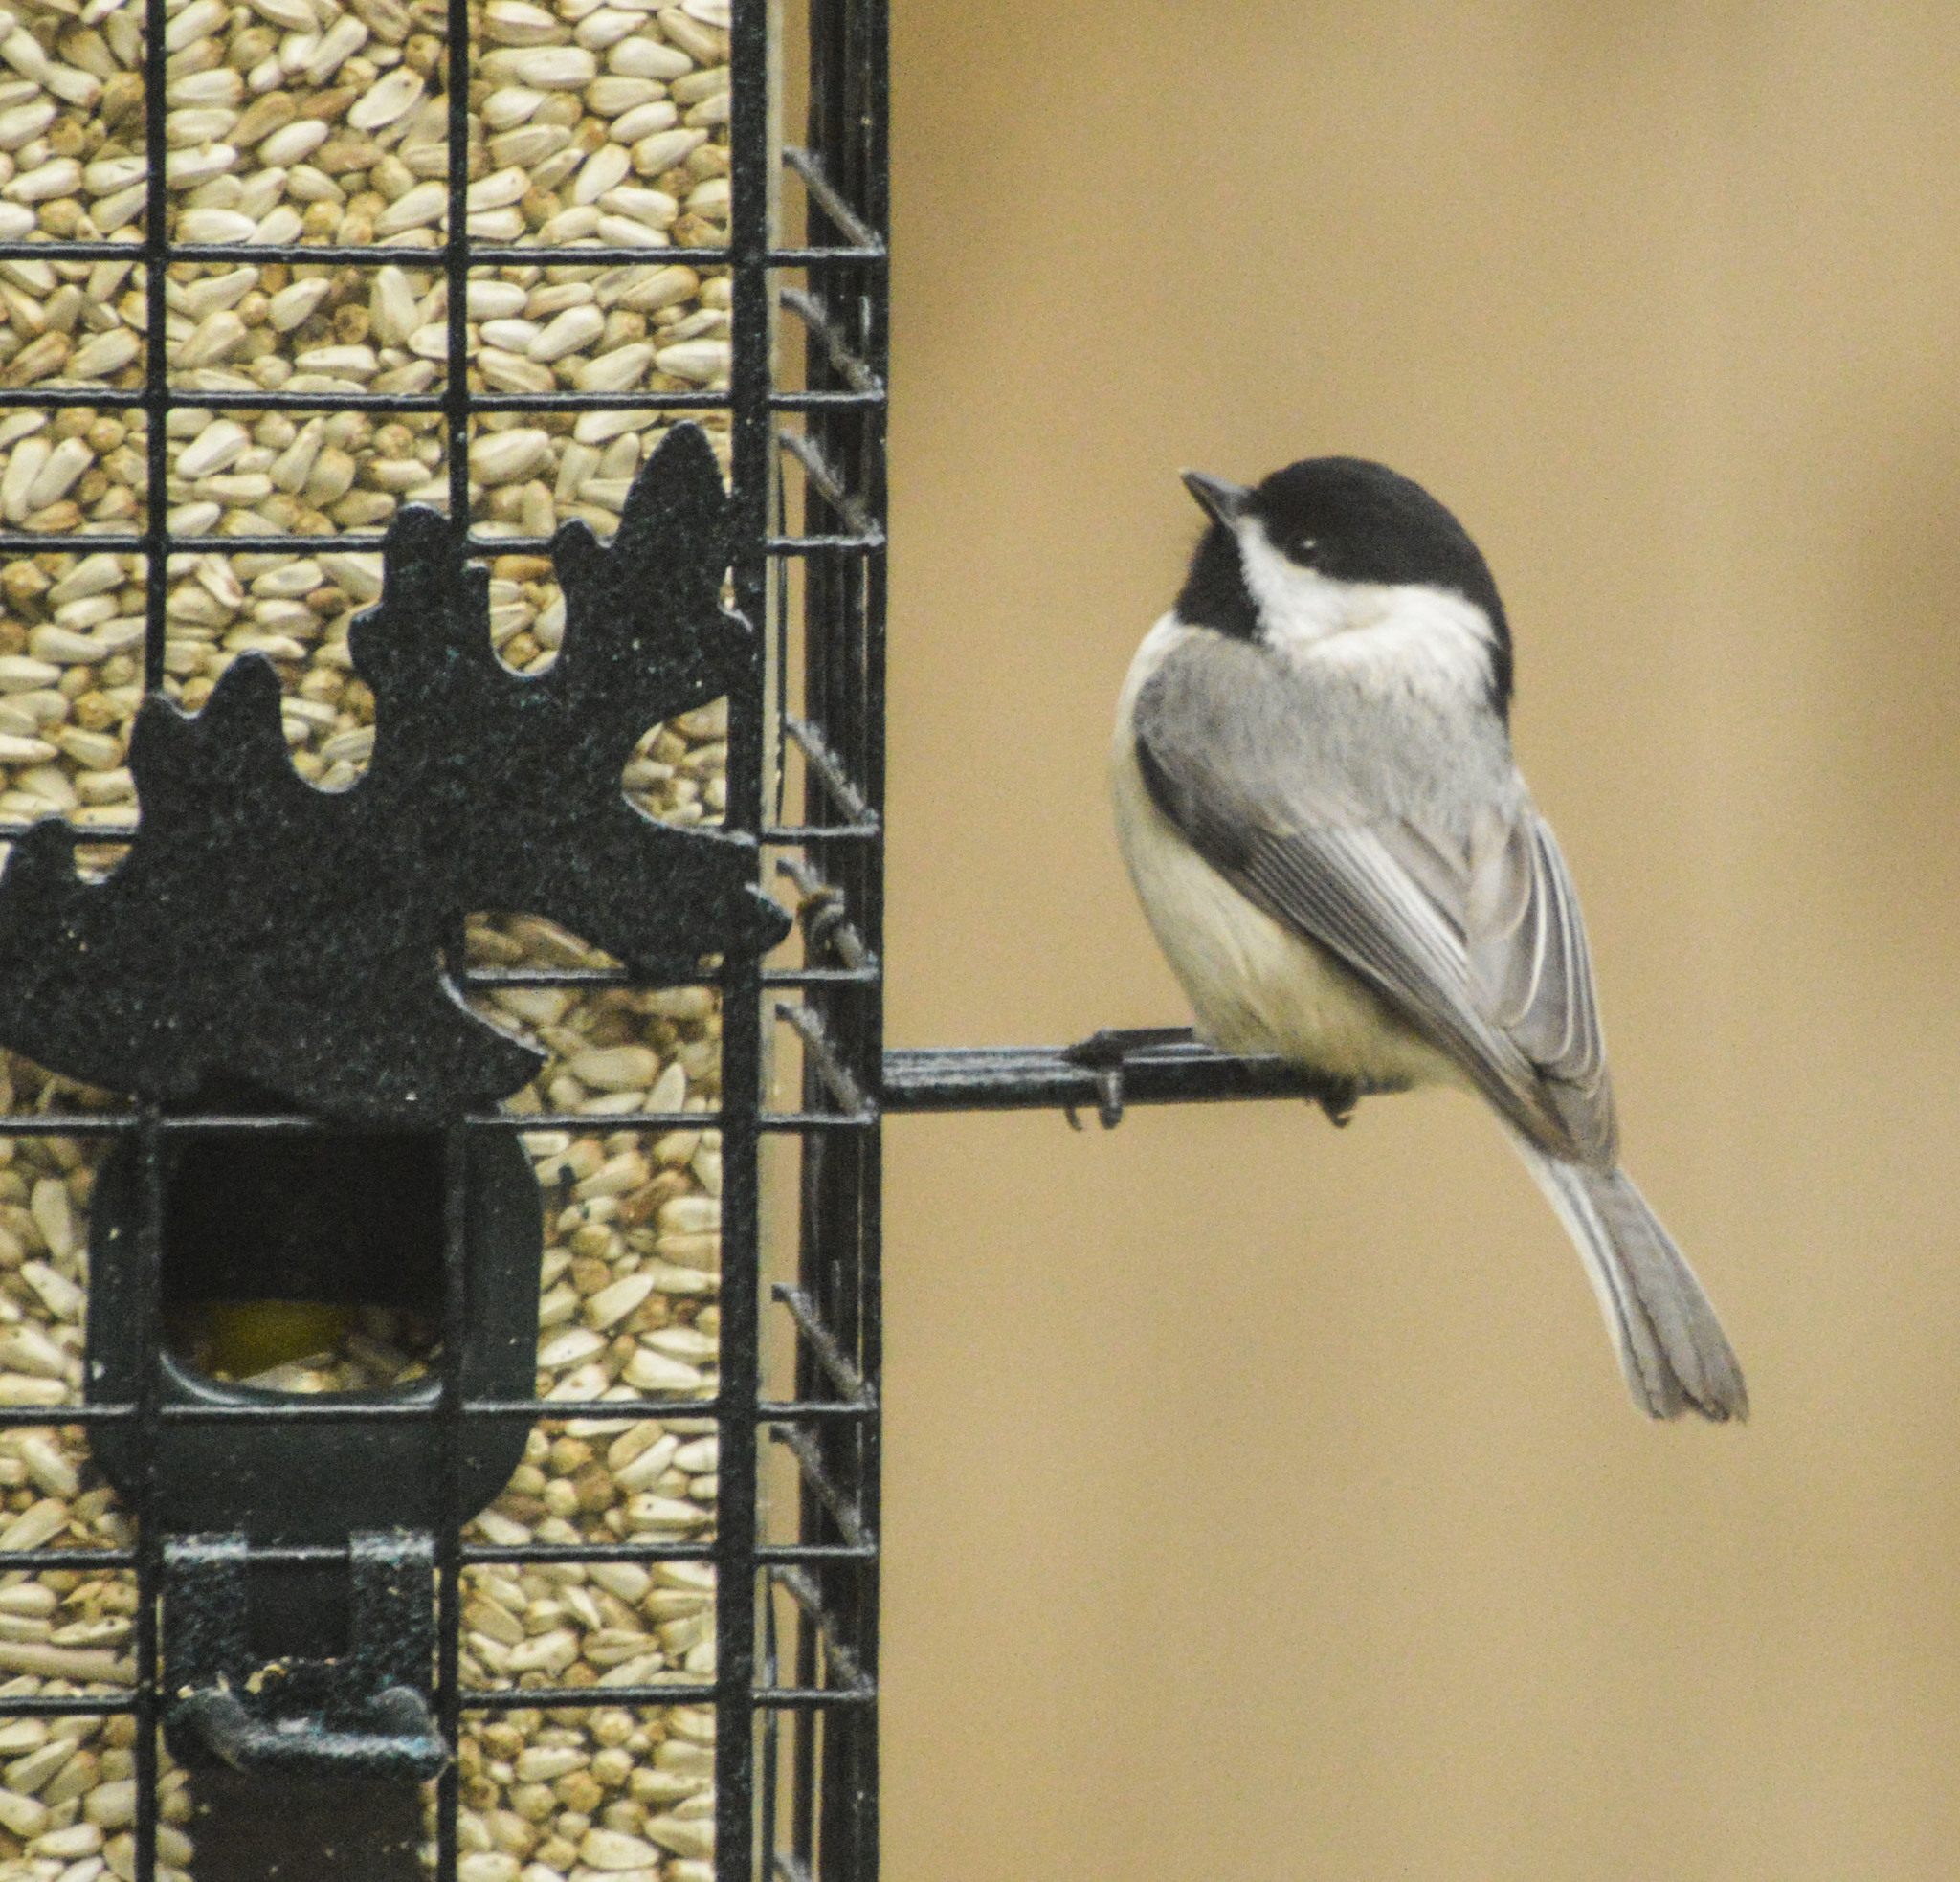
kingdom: Animalia
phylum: Chordata
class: Aves
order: Passeriformes
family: Paridae
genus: Poecile
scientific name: Poecile carolinensis
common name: Carolina chickadee
